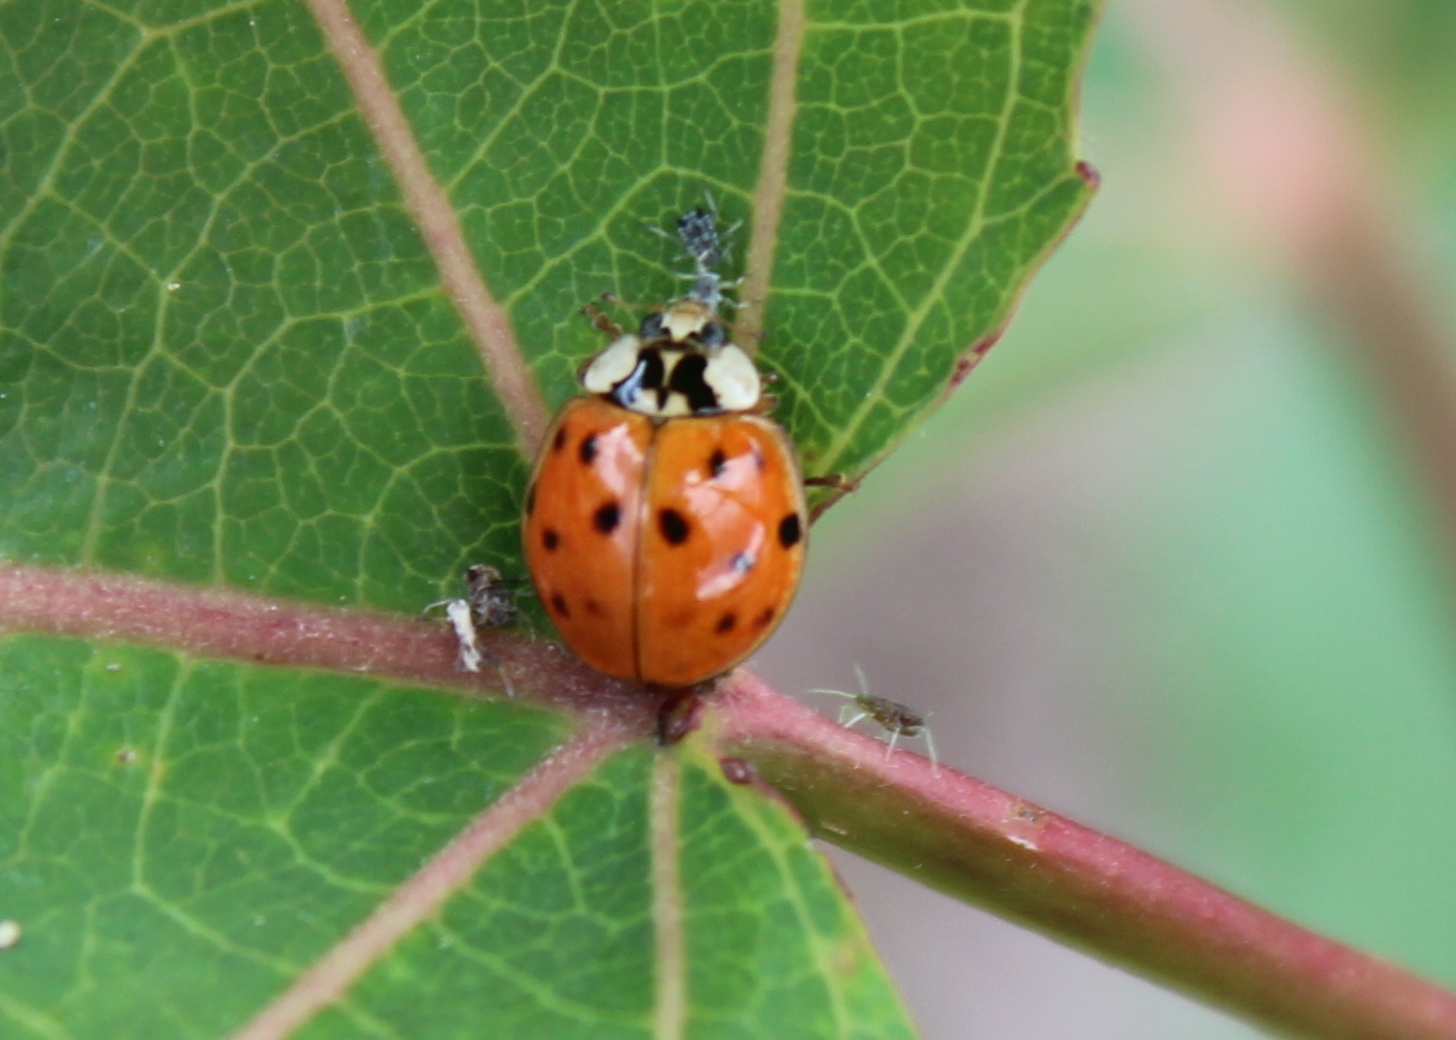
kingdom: Animalia
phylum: Arthropoda
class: Insecta
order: Coleoptera
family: Coccinellidae
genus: Harmonia
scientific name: Harmonia axyridis
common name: Harlequin ladybird
